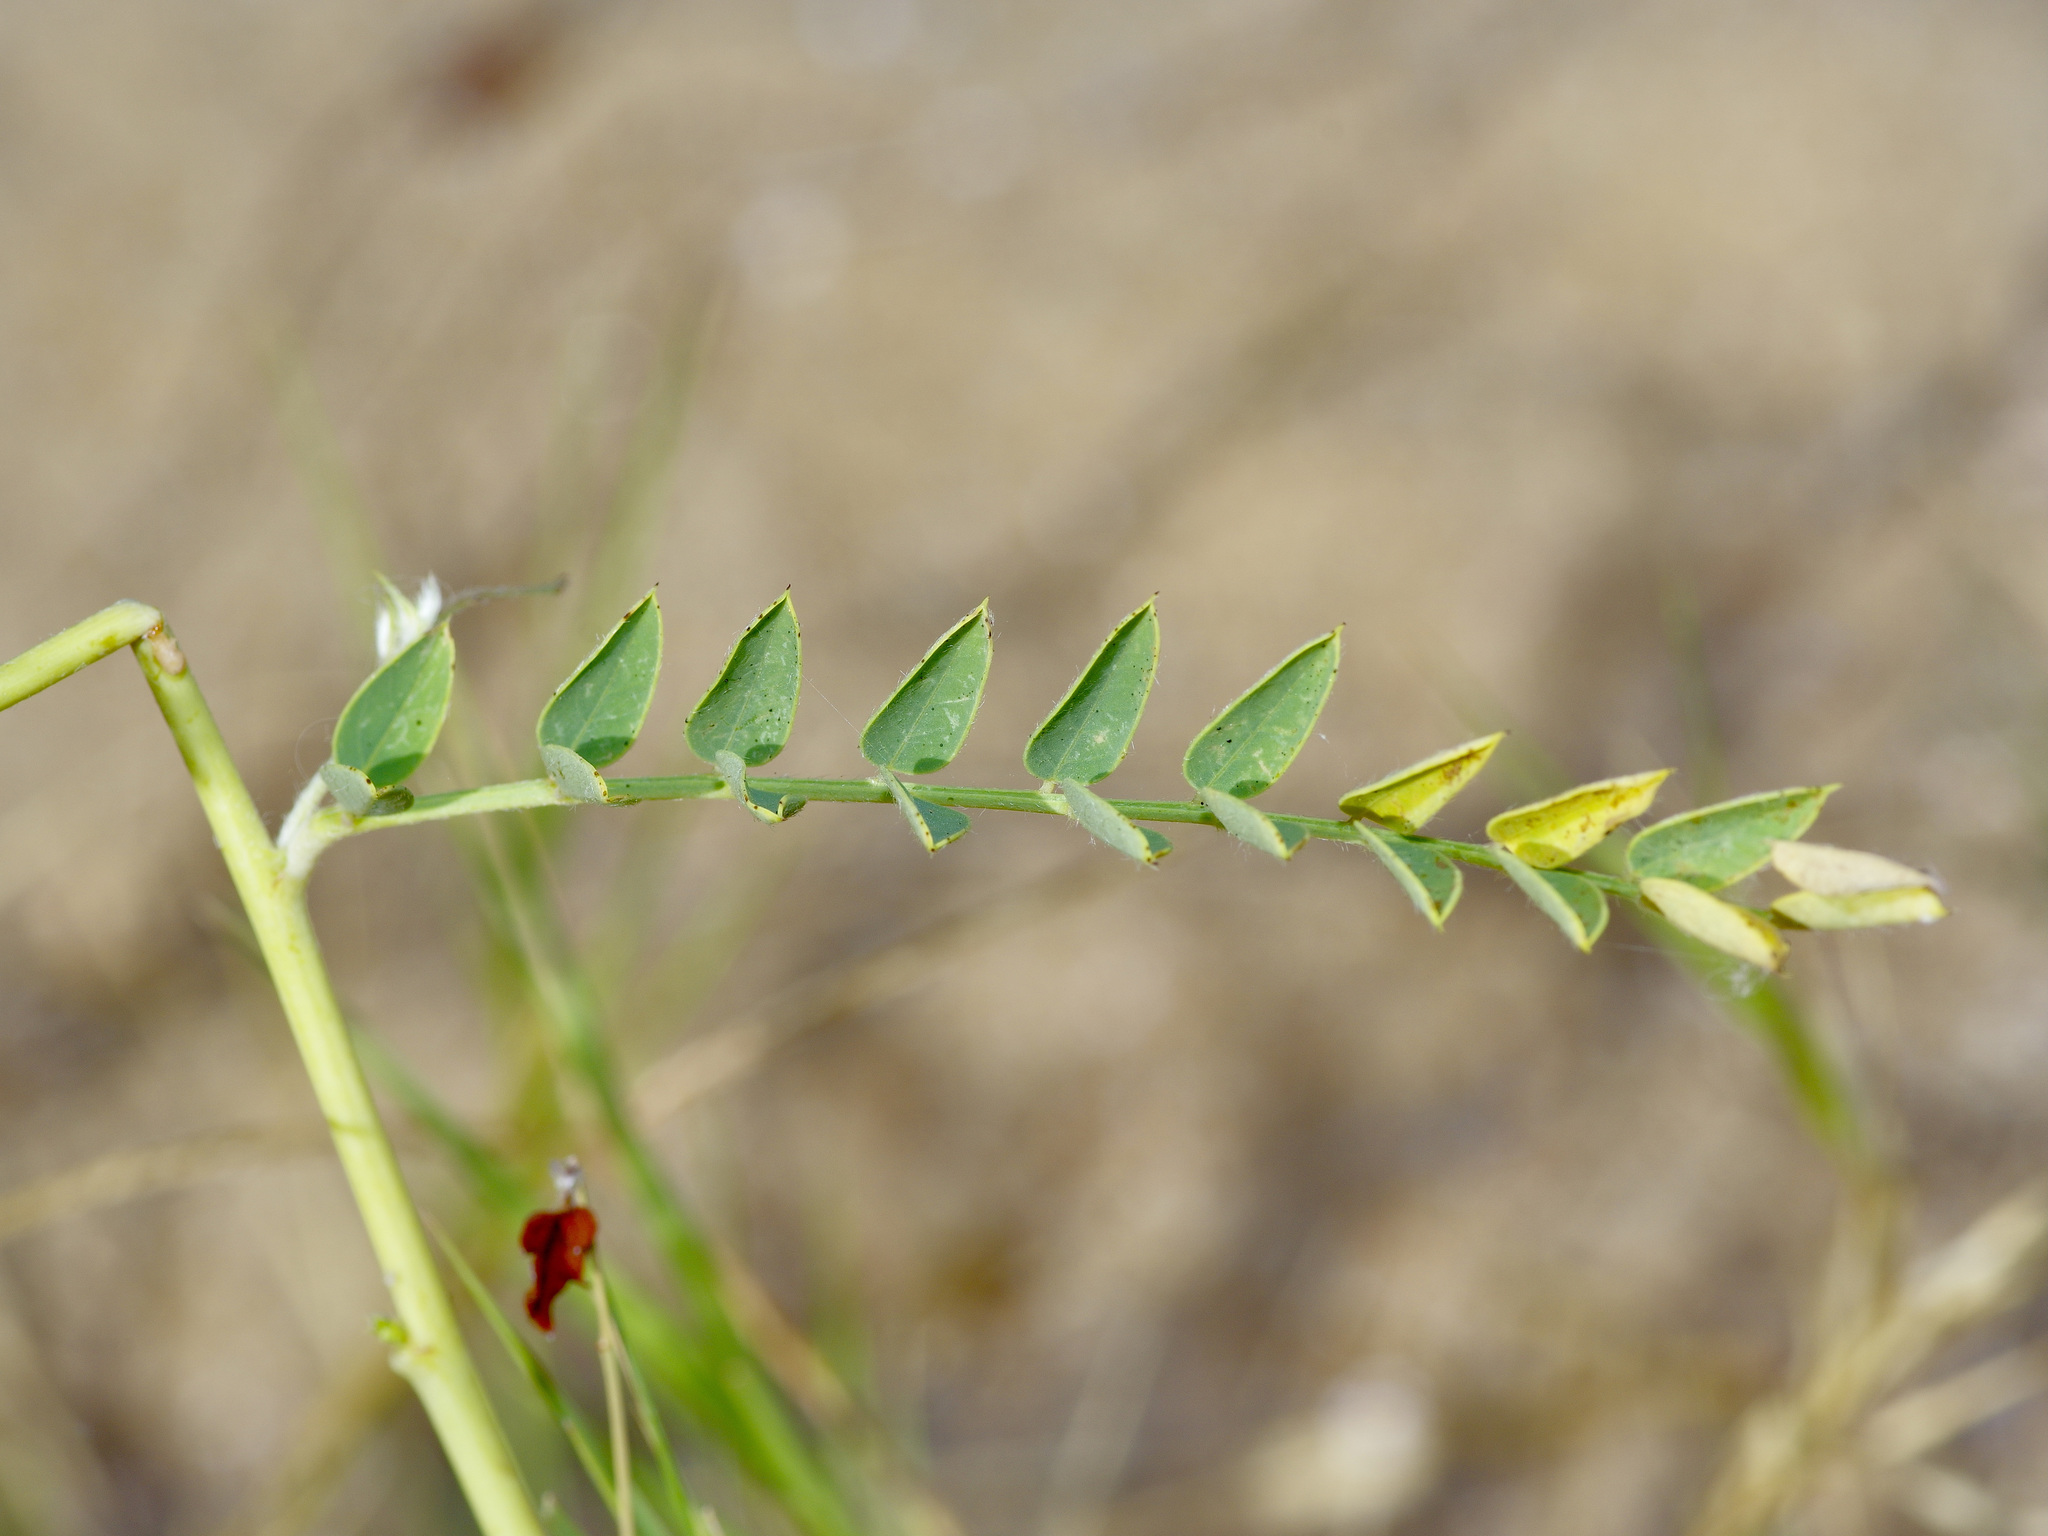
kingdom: Plantae
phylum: Tracheophyta
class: Magnoliopsida
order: Fabales
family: Fabaceae
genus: Sesbania
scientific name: Sesbania vesicaria
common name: Bagpod
